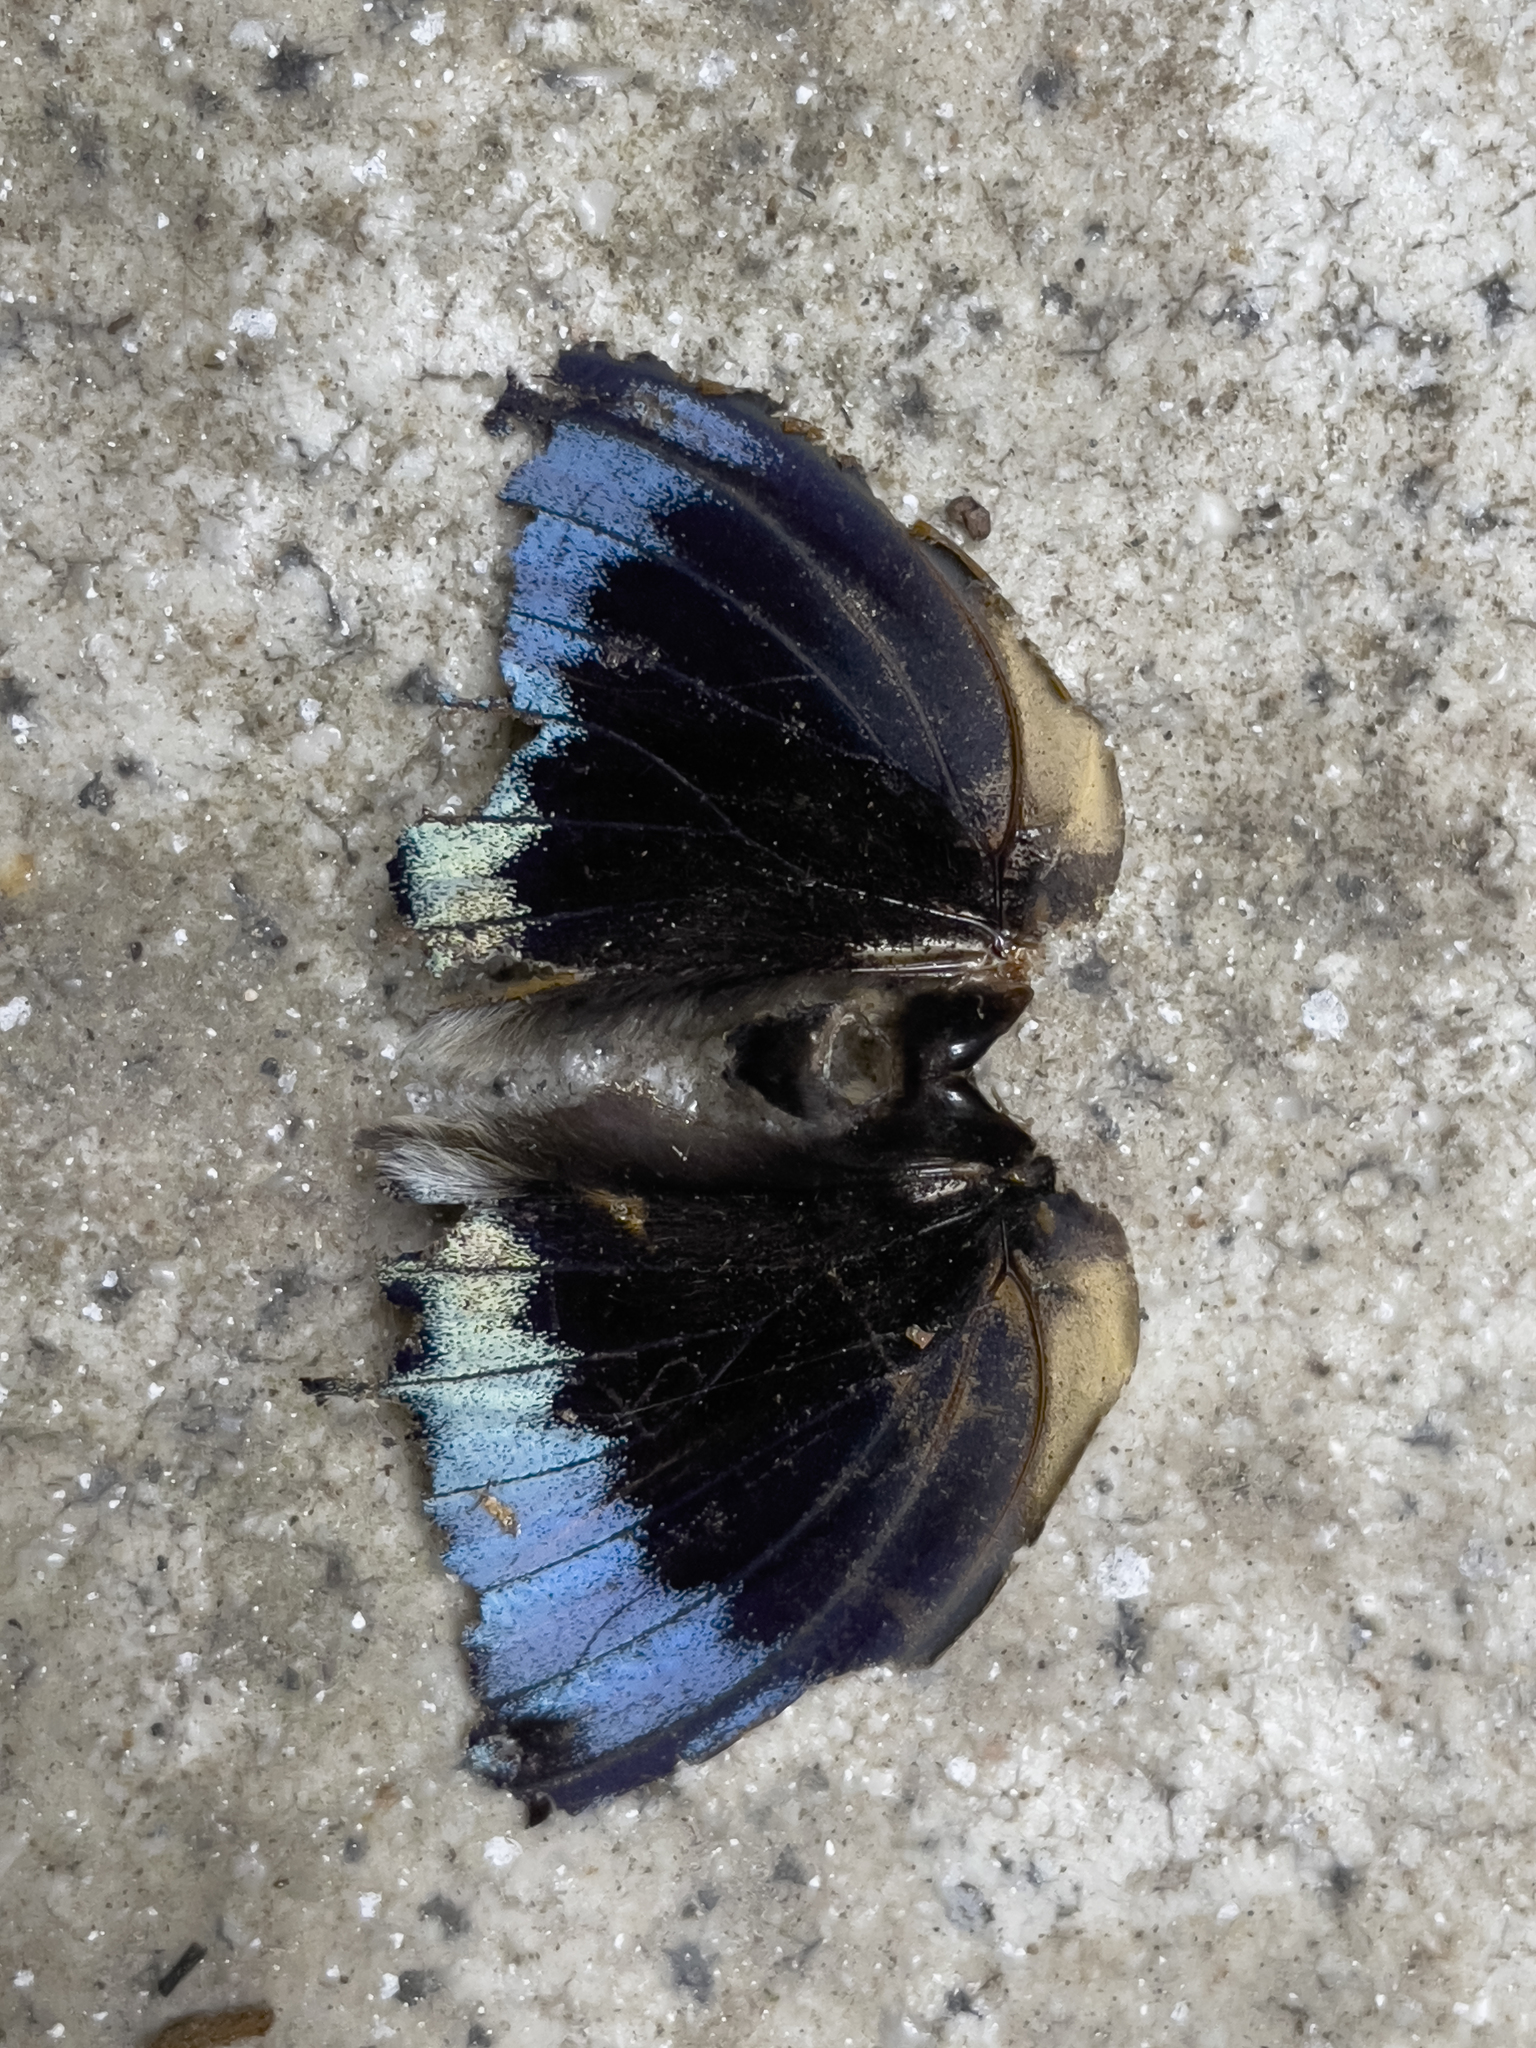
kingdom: Animalia
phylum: Arthropoda
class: Insecta
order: Lepidoptera
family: Nymphalidae
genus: Lexias
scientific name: Lexias pardalis
